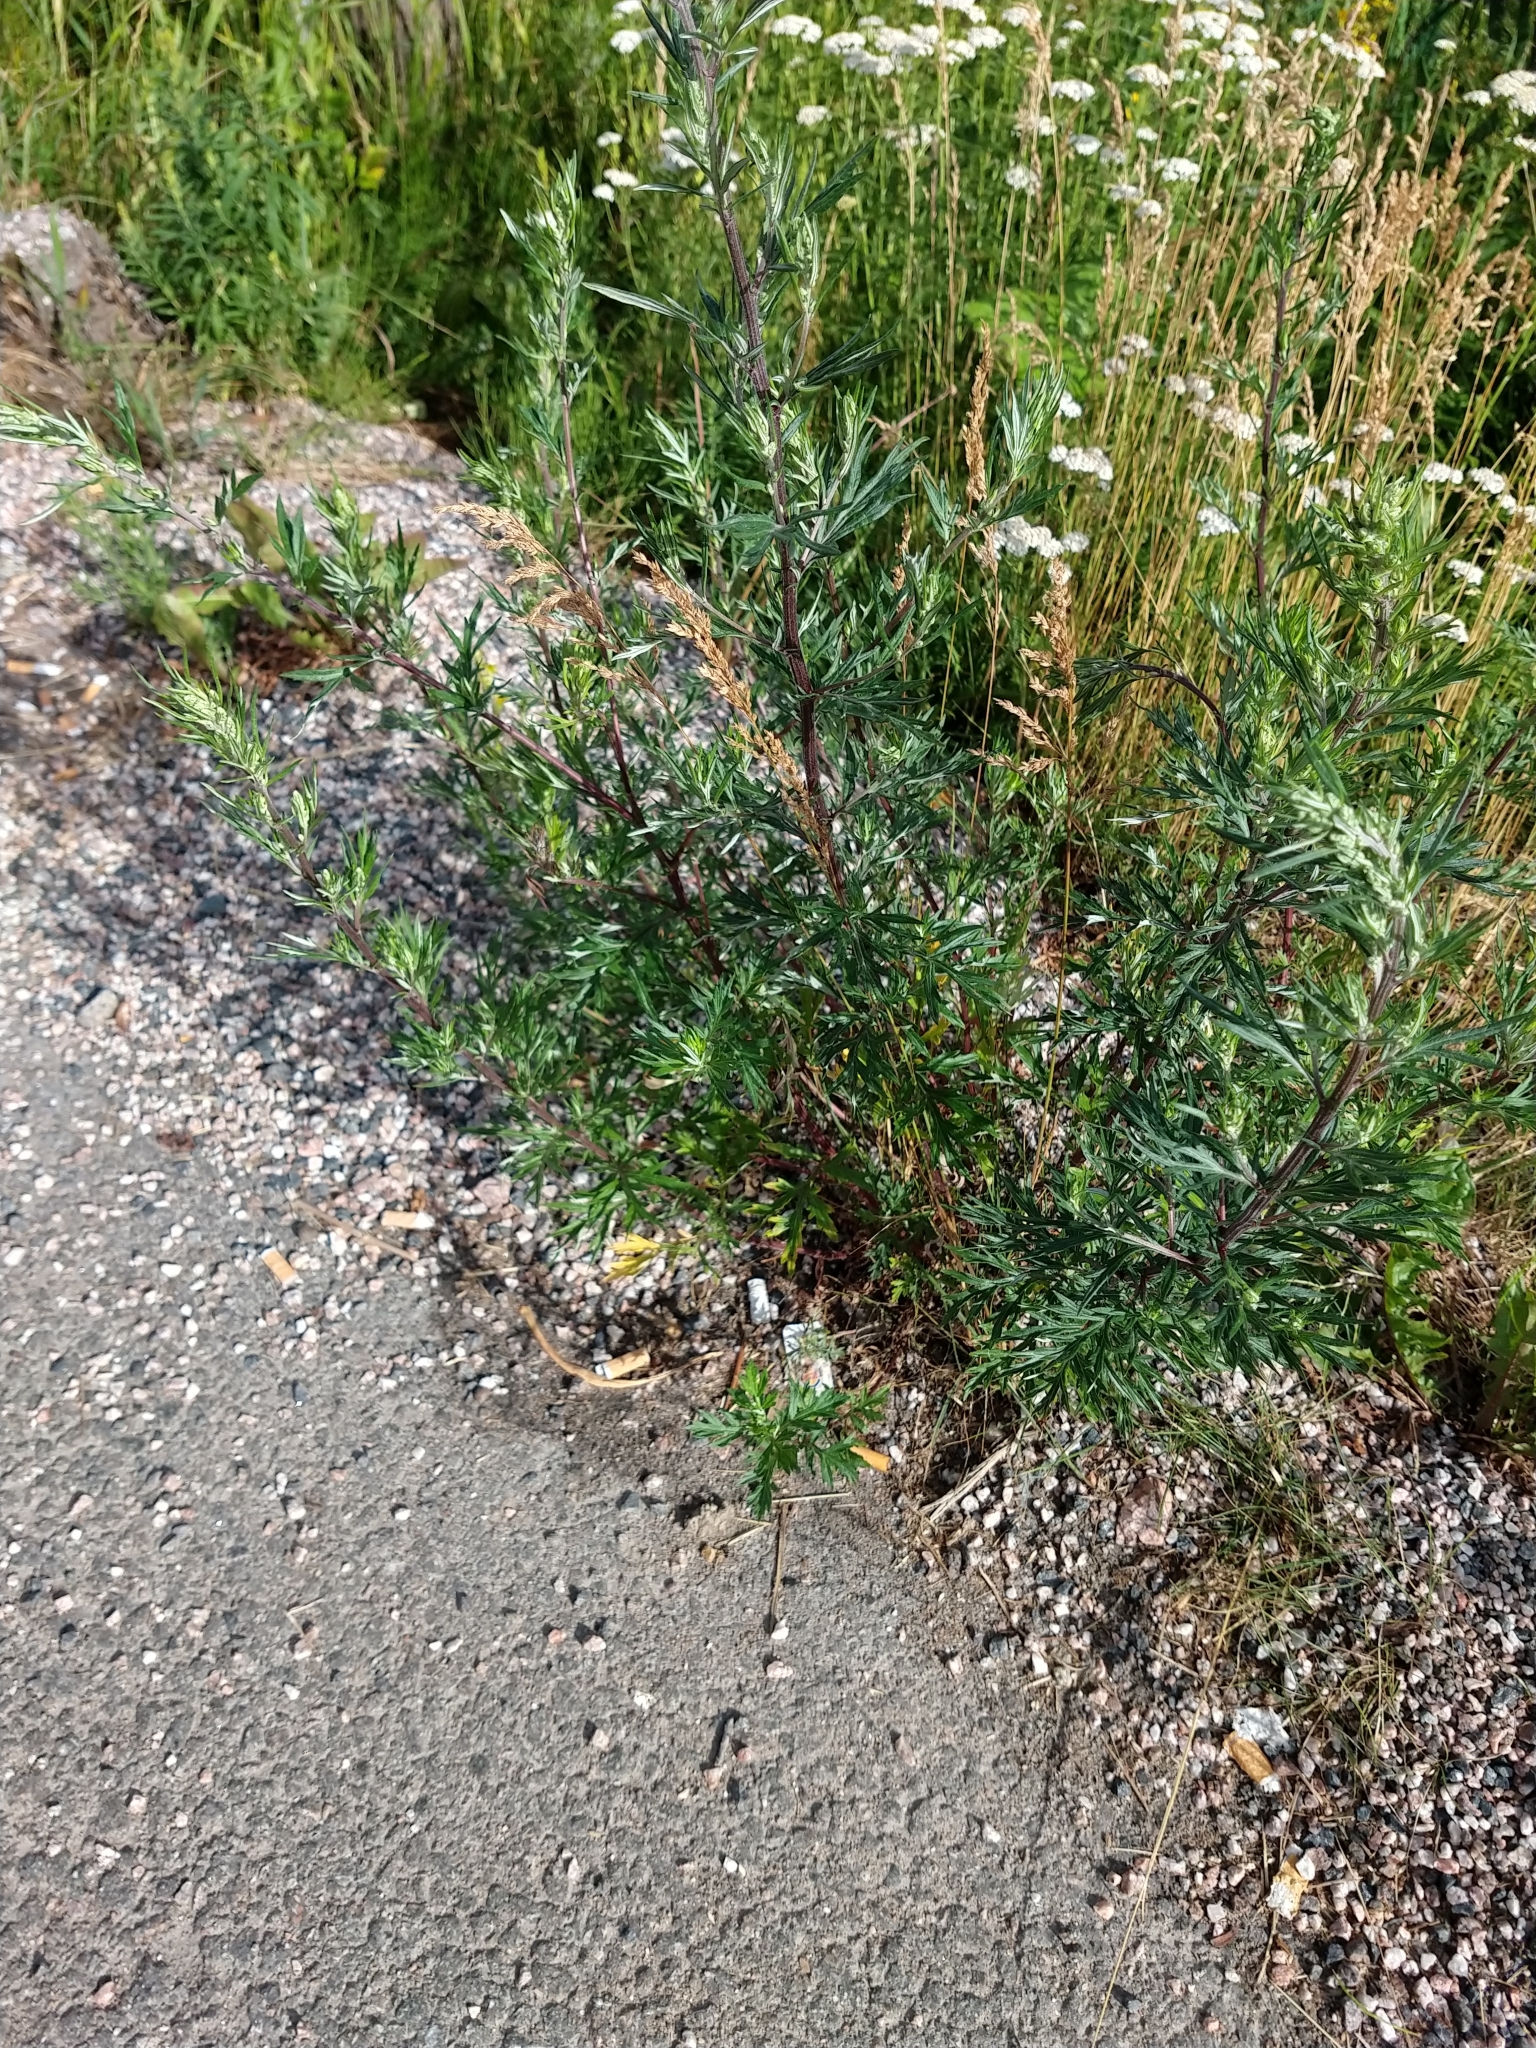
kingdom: Plantae
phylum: Tracheophyta
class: Magnoliopsida
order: Asterales
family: Asteraceae
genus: Artemisia
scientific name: Artemisia vulgaris
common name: Mugwort
